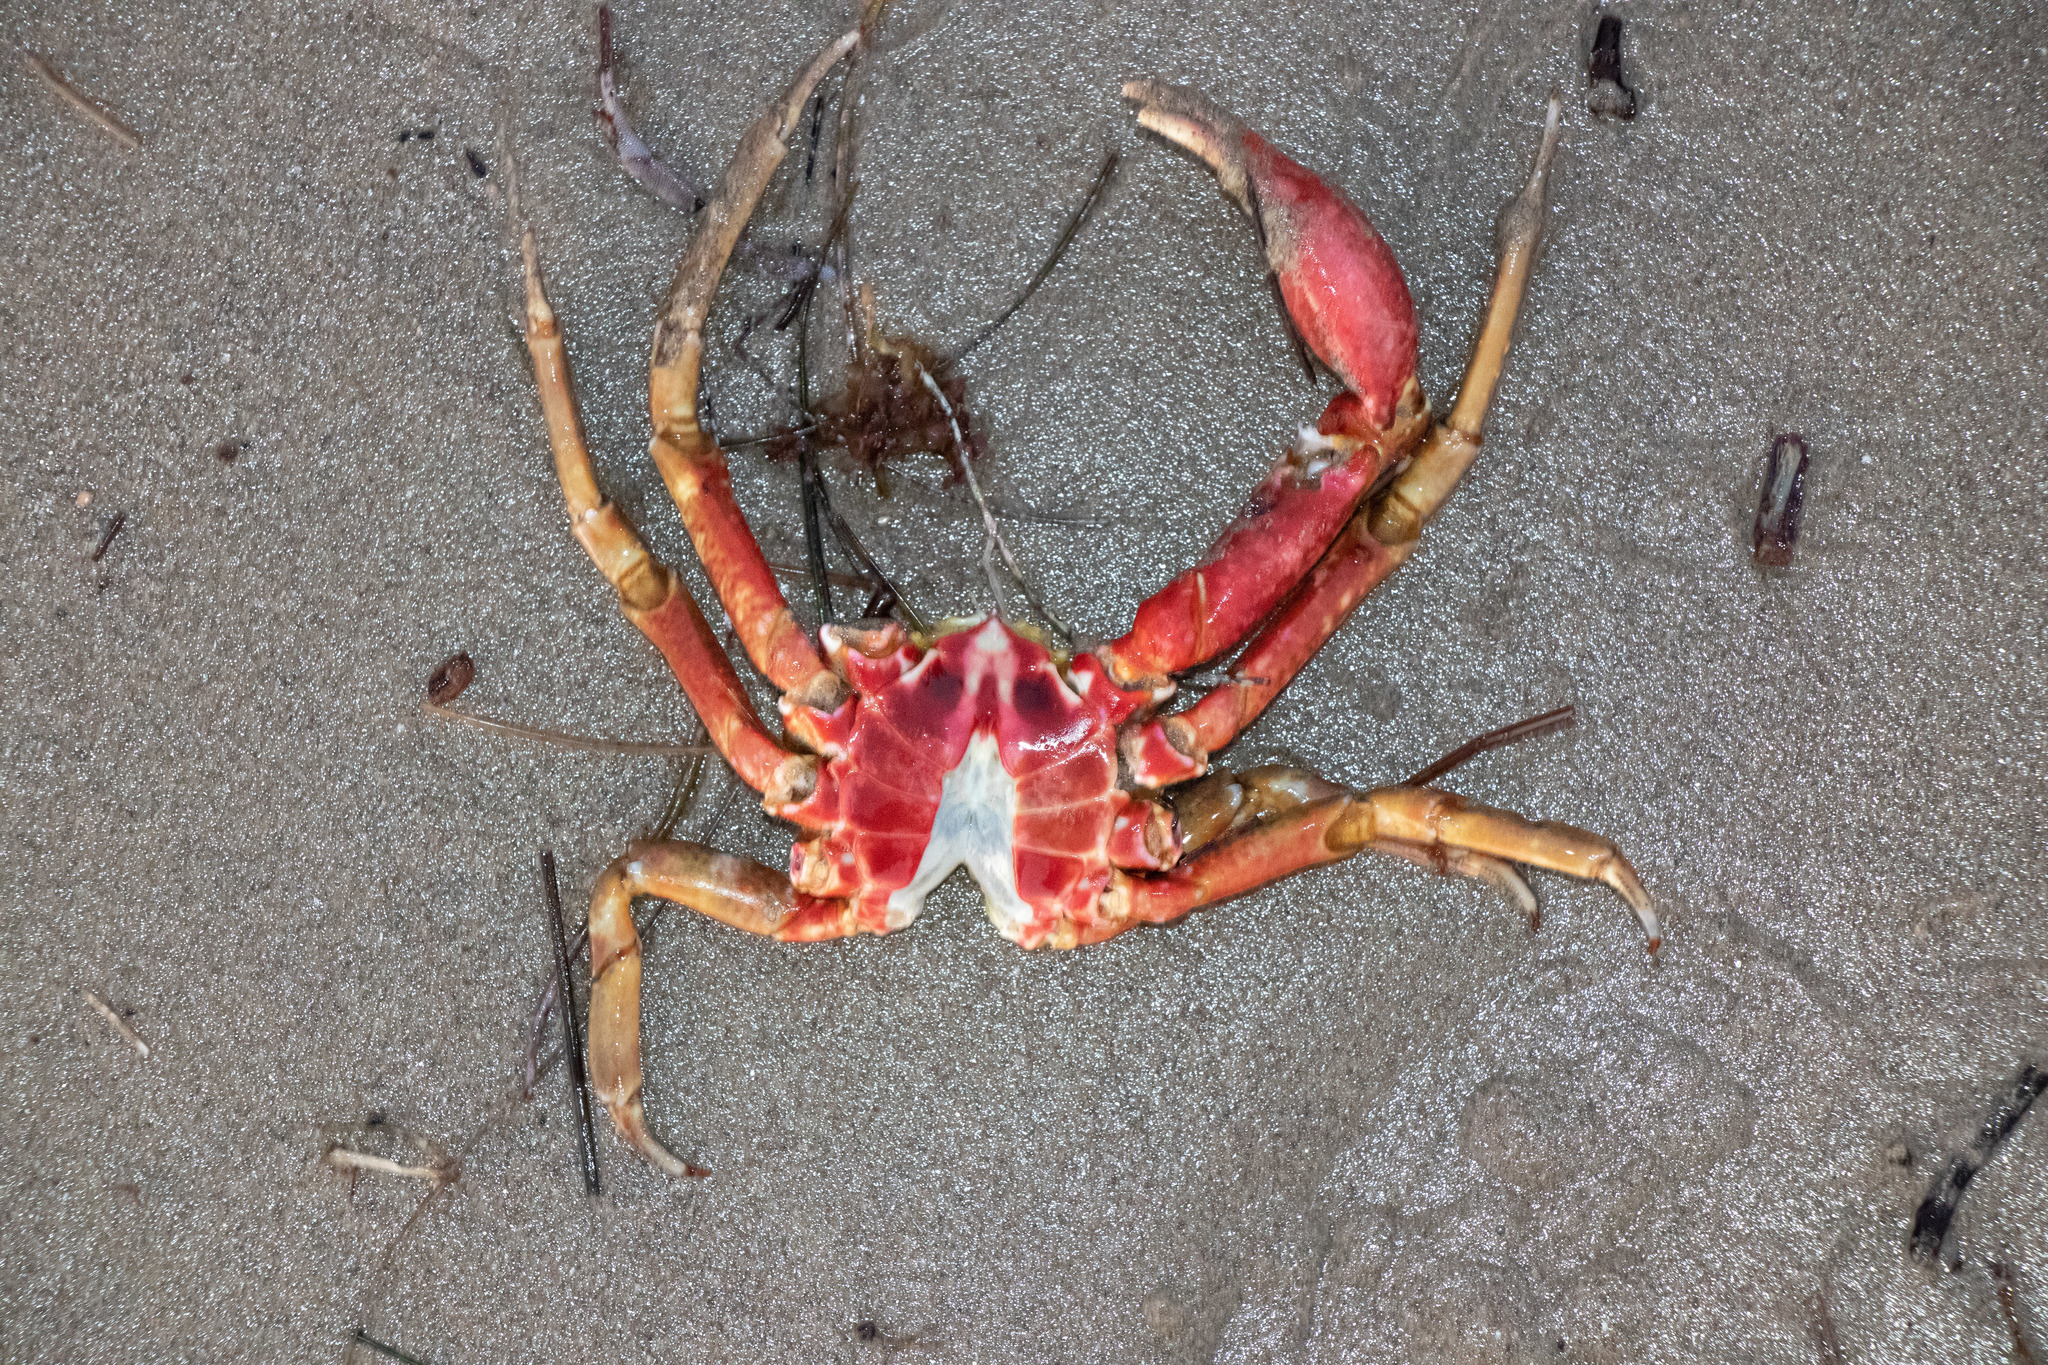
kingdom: Animalia
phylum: Arthropoda
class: Malacostraca
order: Decapoda
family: Epialtidae
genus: Pugettia
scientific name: Pugettia producta
